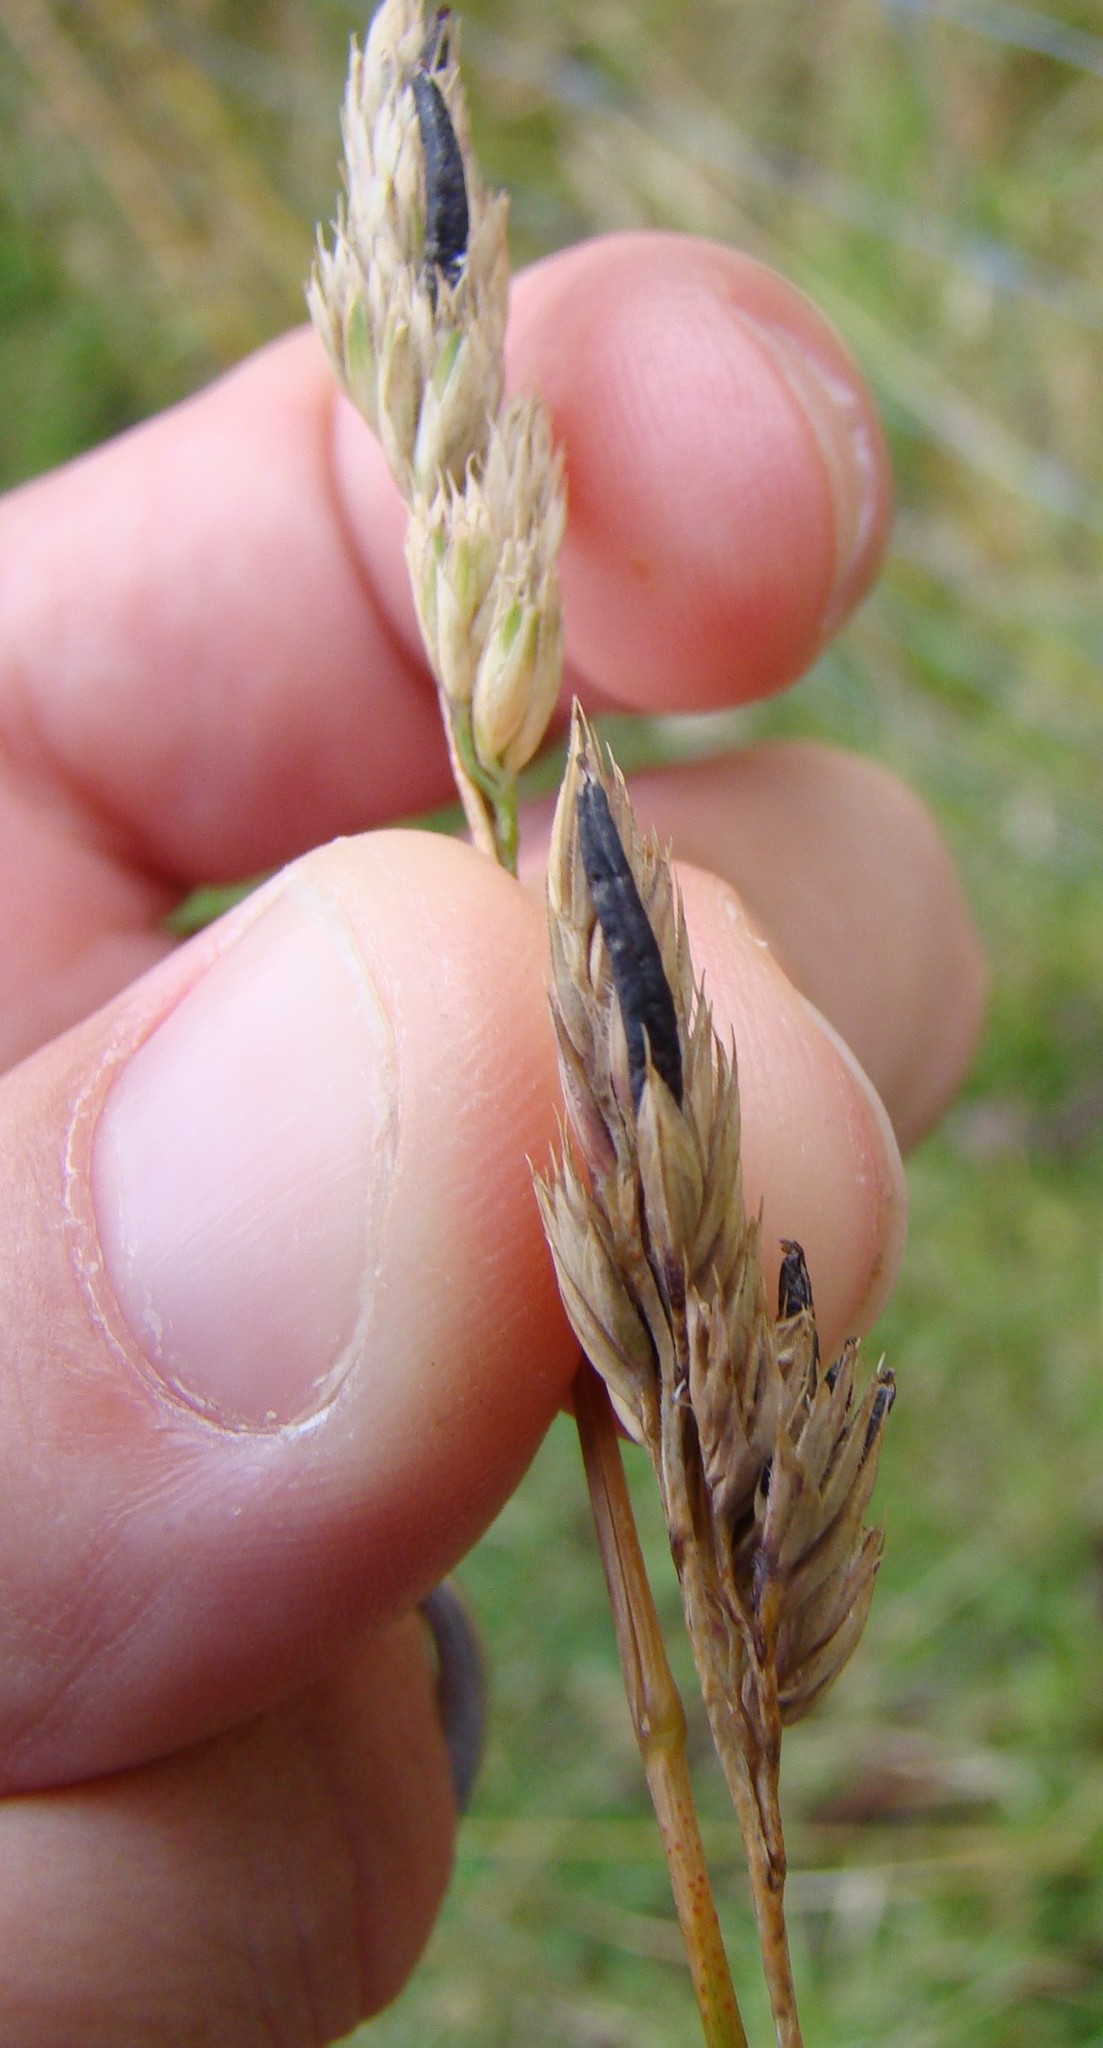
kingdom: Fungi
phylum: Ascomycota
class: Sordariomycetes
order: Hypocreales
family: Clavicipitaceae
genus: Claviceps
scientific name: Claviceps purpurea
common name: Rye ergot
